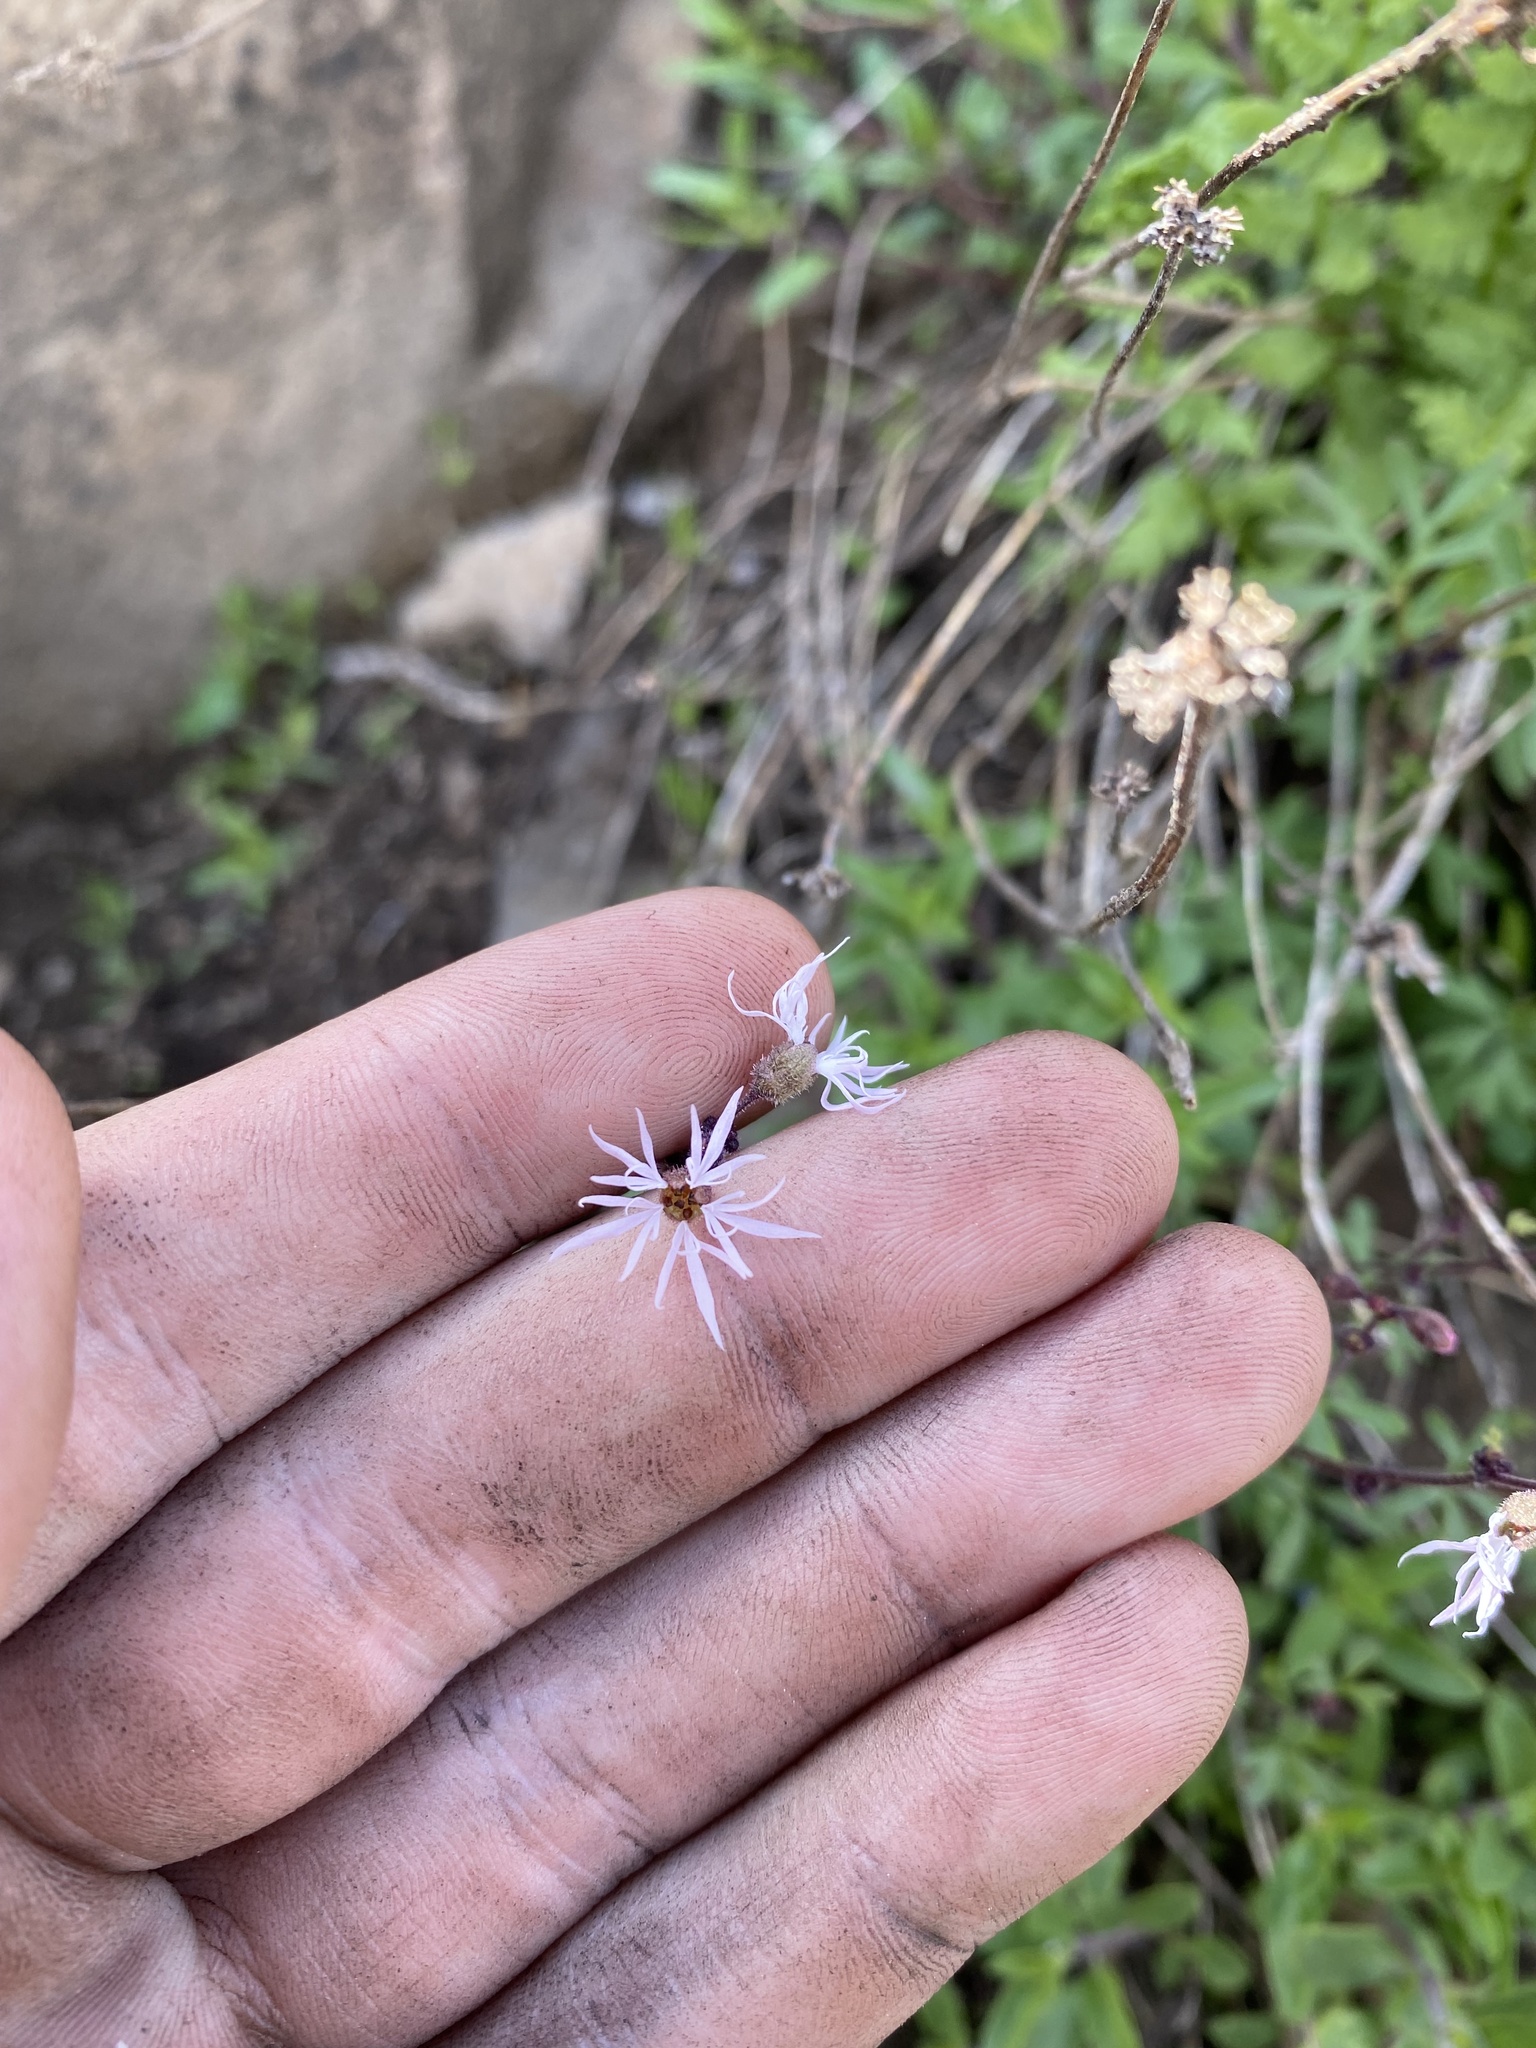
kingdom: Plantae
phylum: Tracheophyta
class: Magnoliopsida
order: Saxifragales
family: Saxifragaceae
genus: Lithophragma
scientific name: Lithophragma glabrum
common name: Bulbous prairie-star
